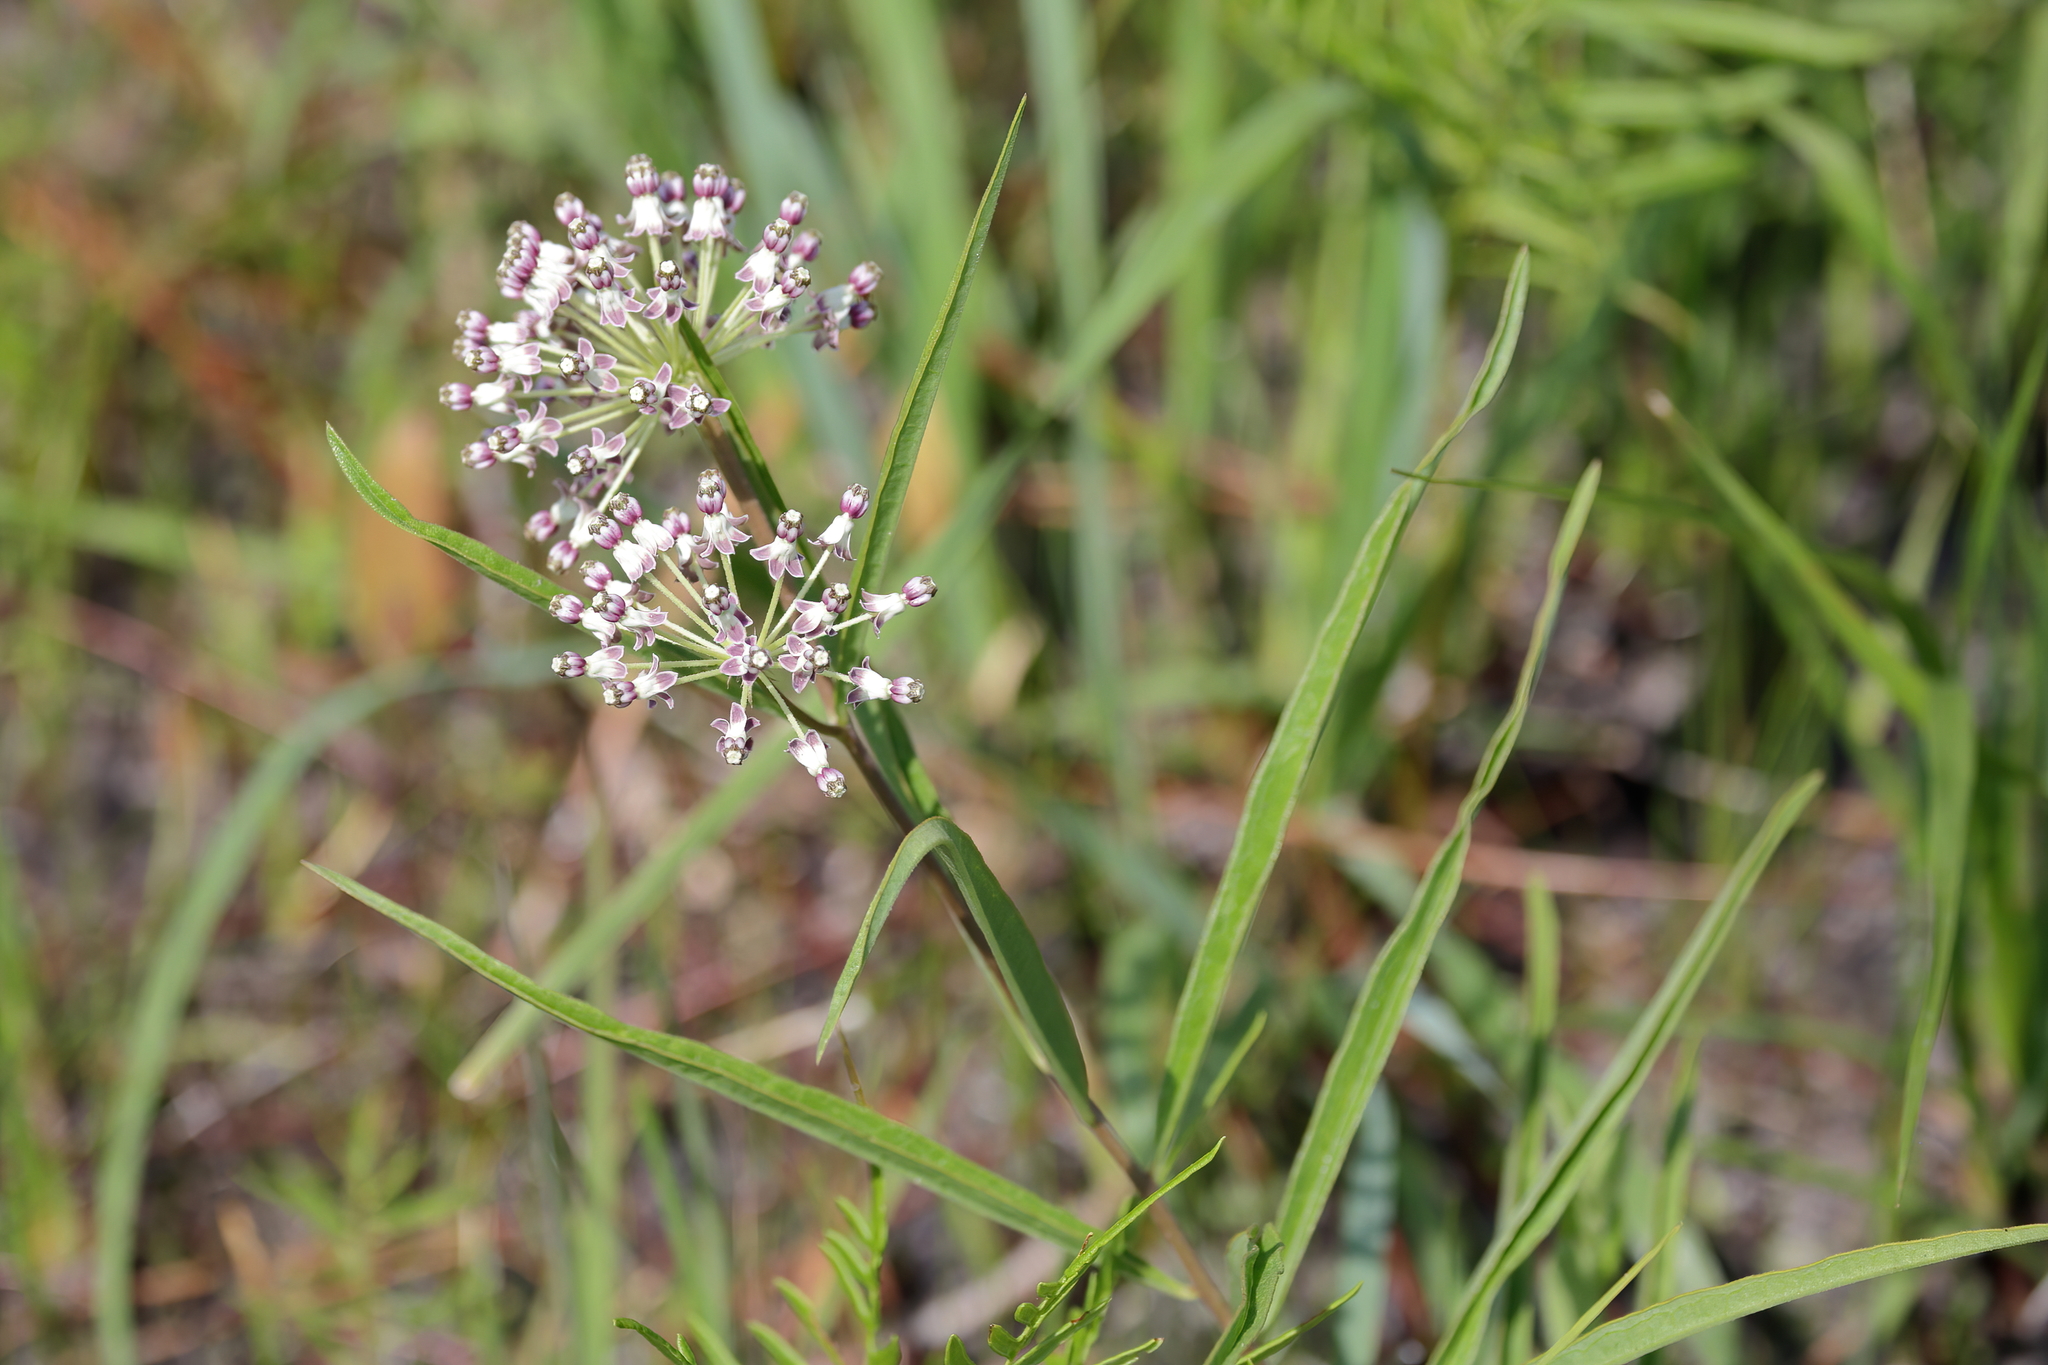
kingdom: Plantae
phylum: Tracheophyta
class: Magnoliopsida
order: Gentianales
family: Apocynaceae
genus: Asclepias
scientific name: Asclepias longifolia
